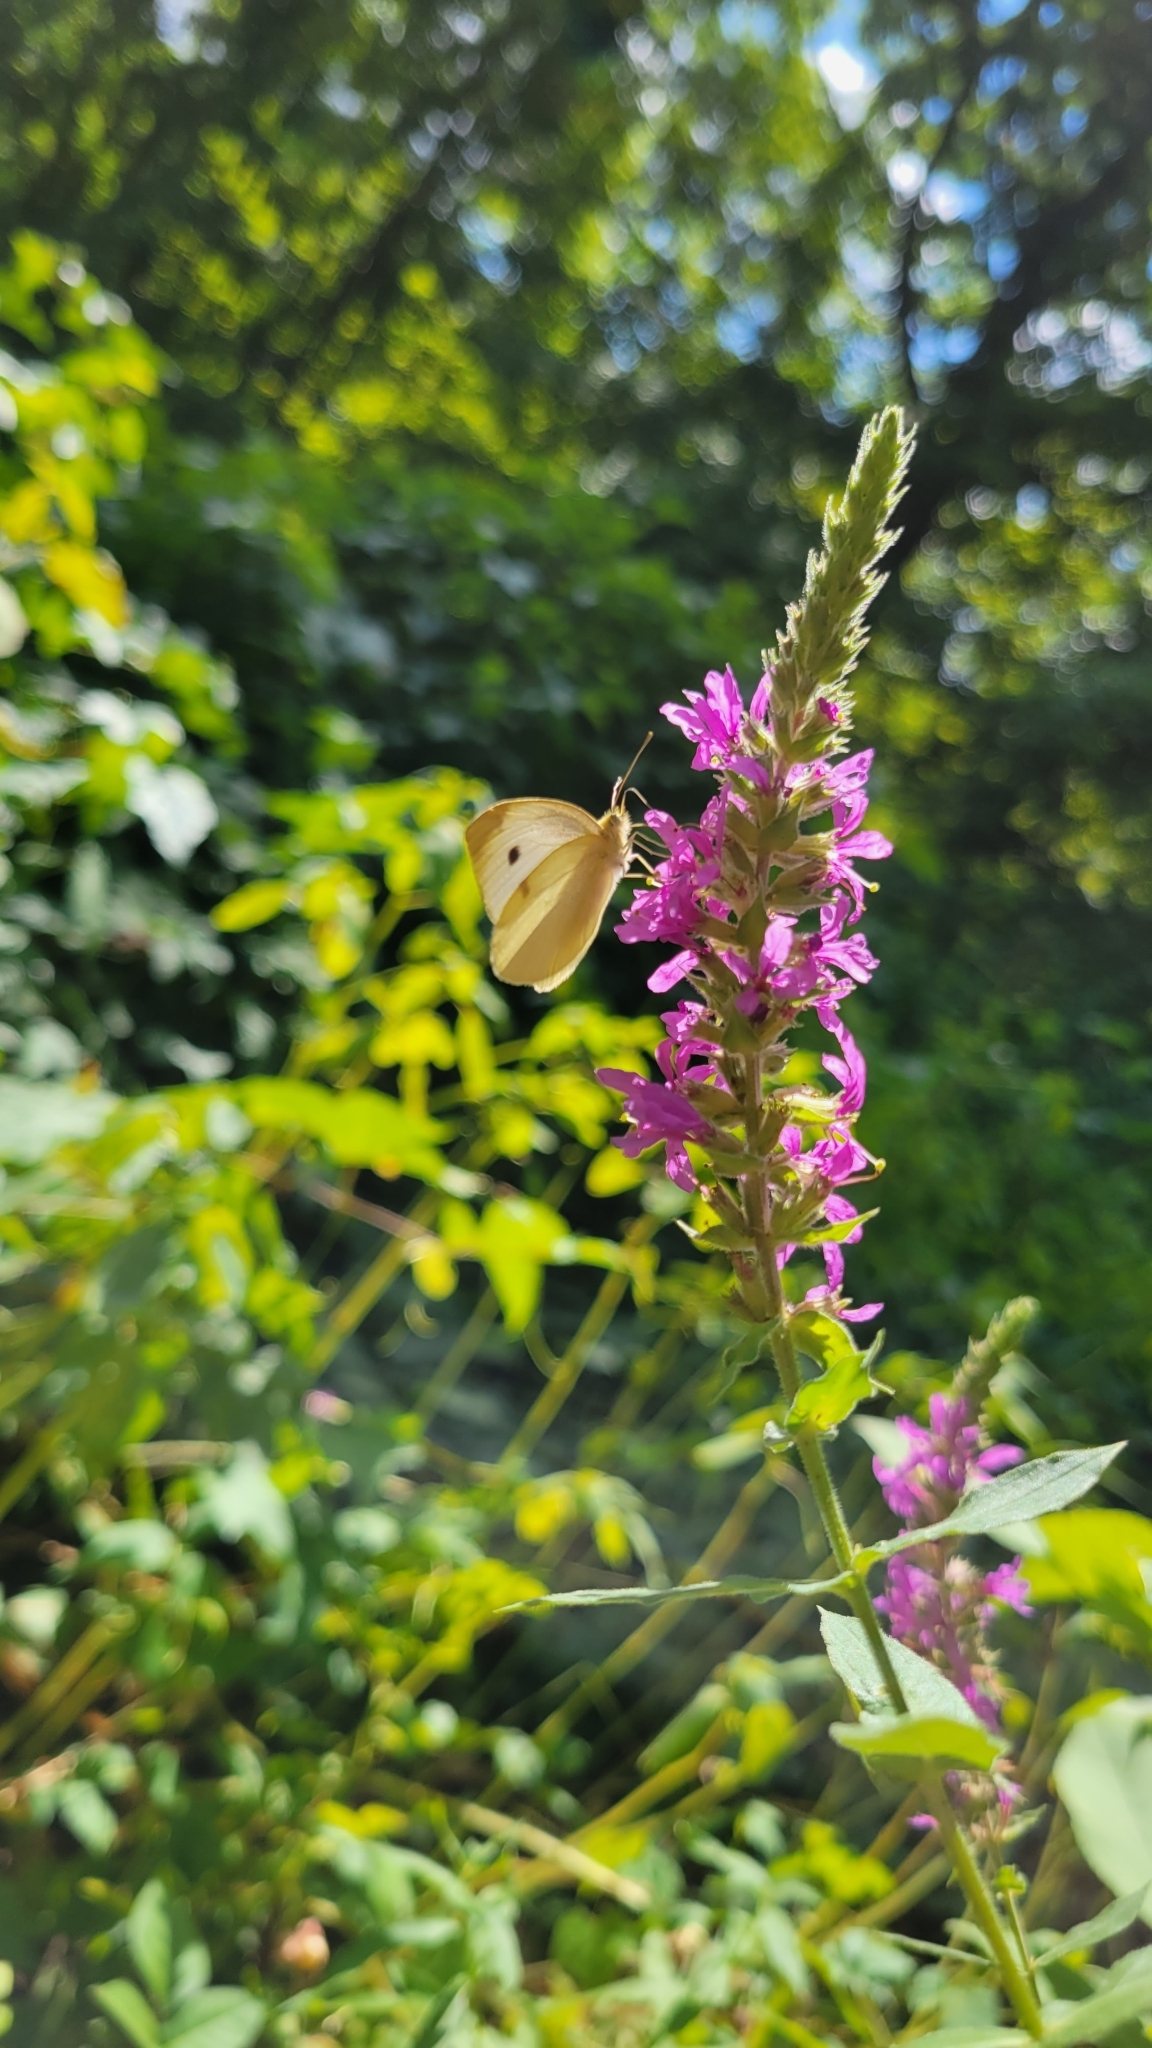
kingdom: Animalia
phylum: Arthropoda
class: Insecta
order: Lepidoptera
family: Pieridae
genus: Pieris
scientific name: Pieris rapae
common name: Small white
